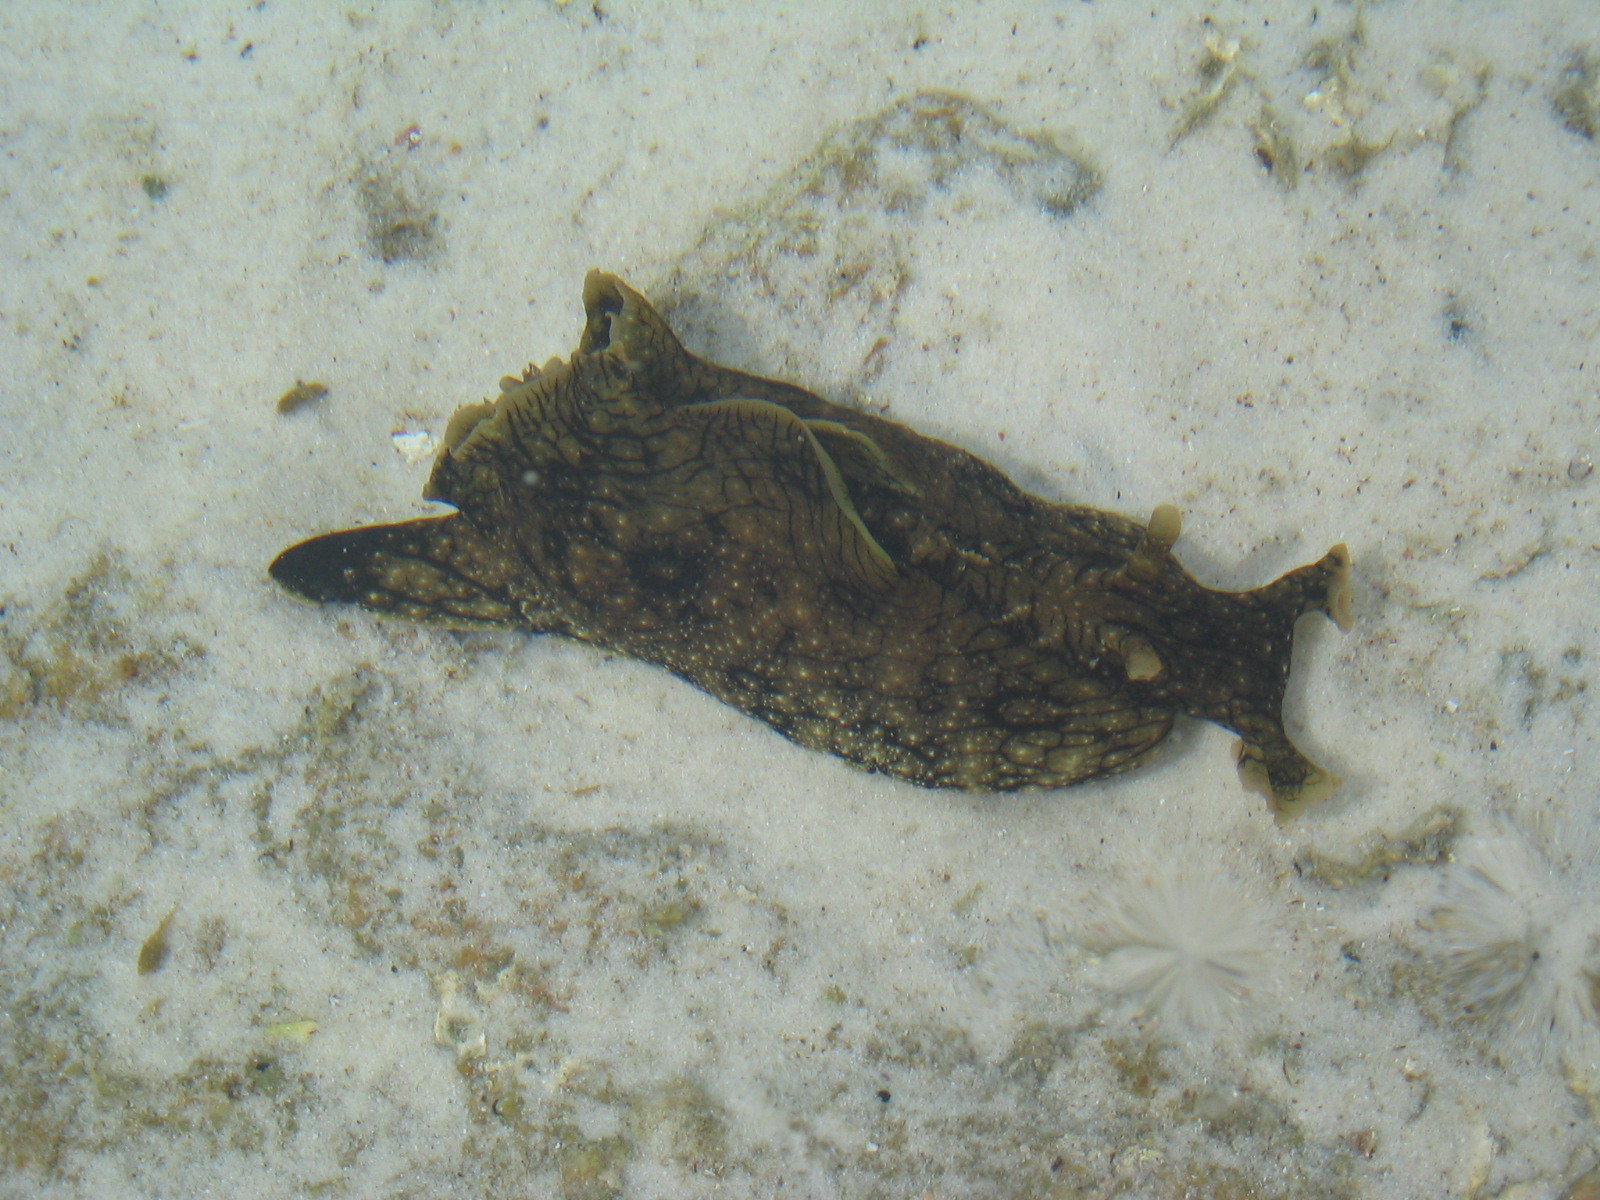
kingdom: Animalia
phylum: Mollusca
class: Gastropoda
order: Aplysiida
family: Aplysiidae
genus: Aplysia
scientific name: Aplysia argus
